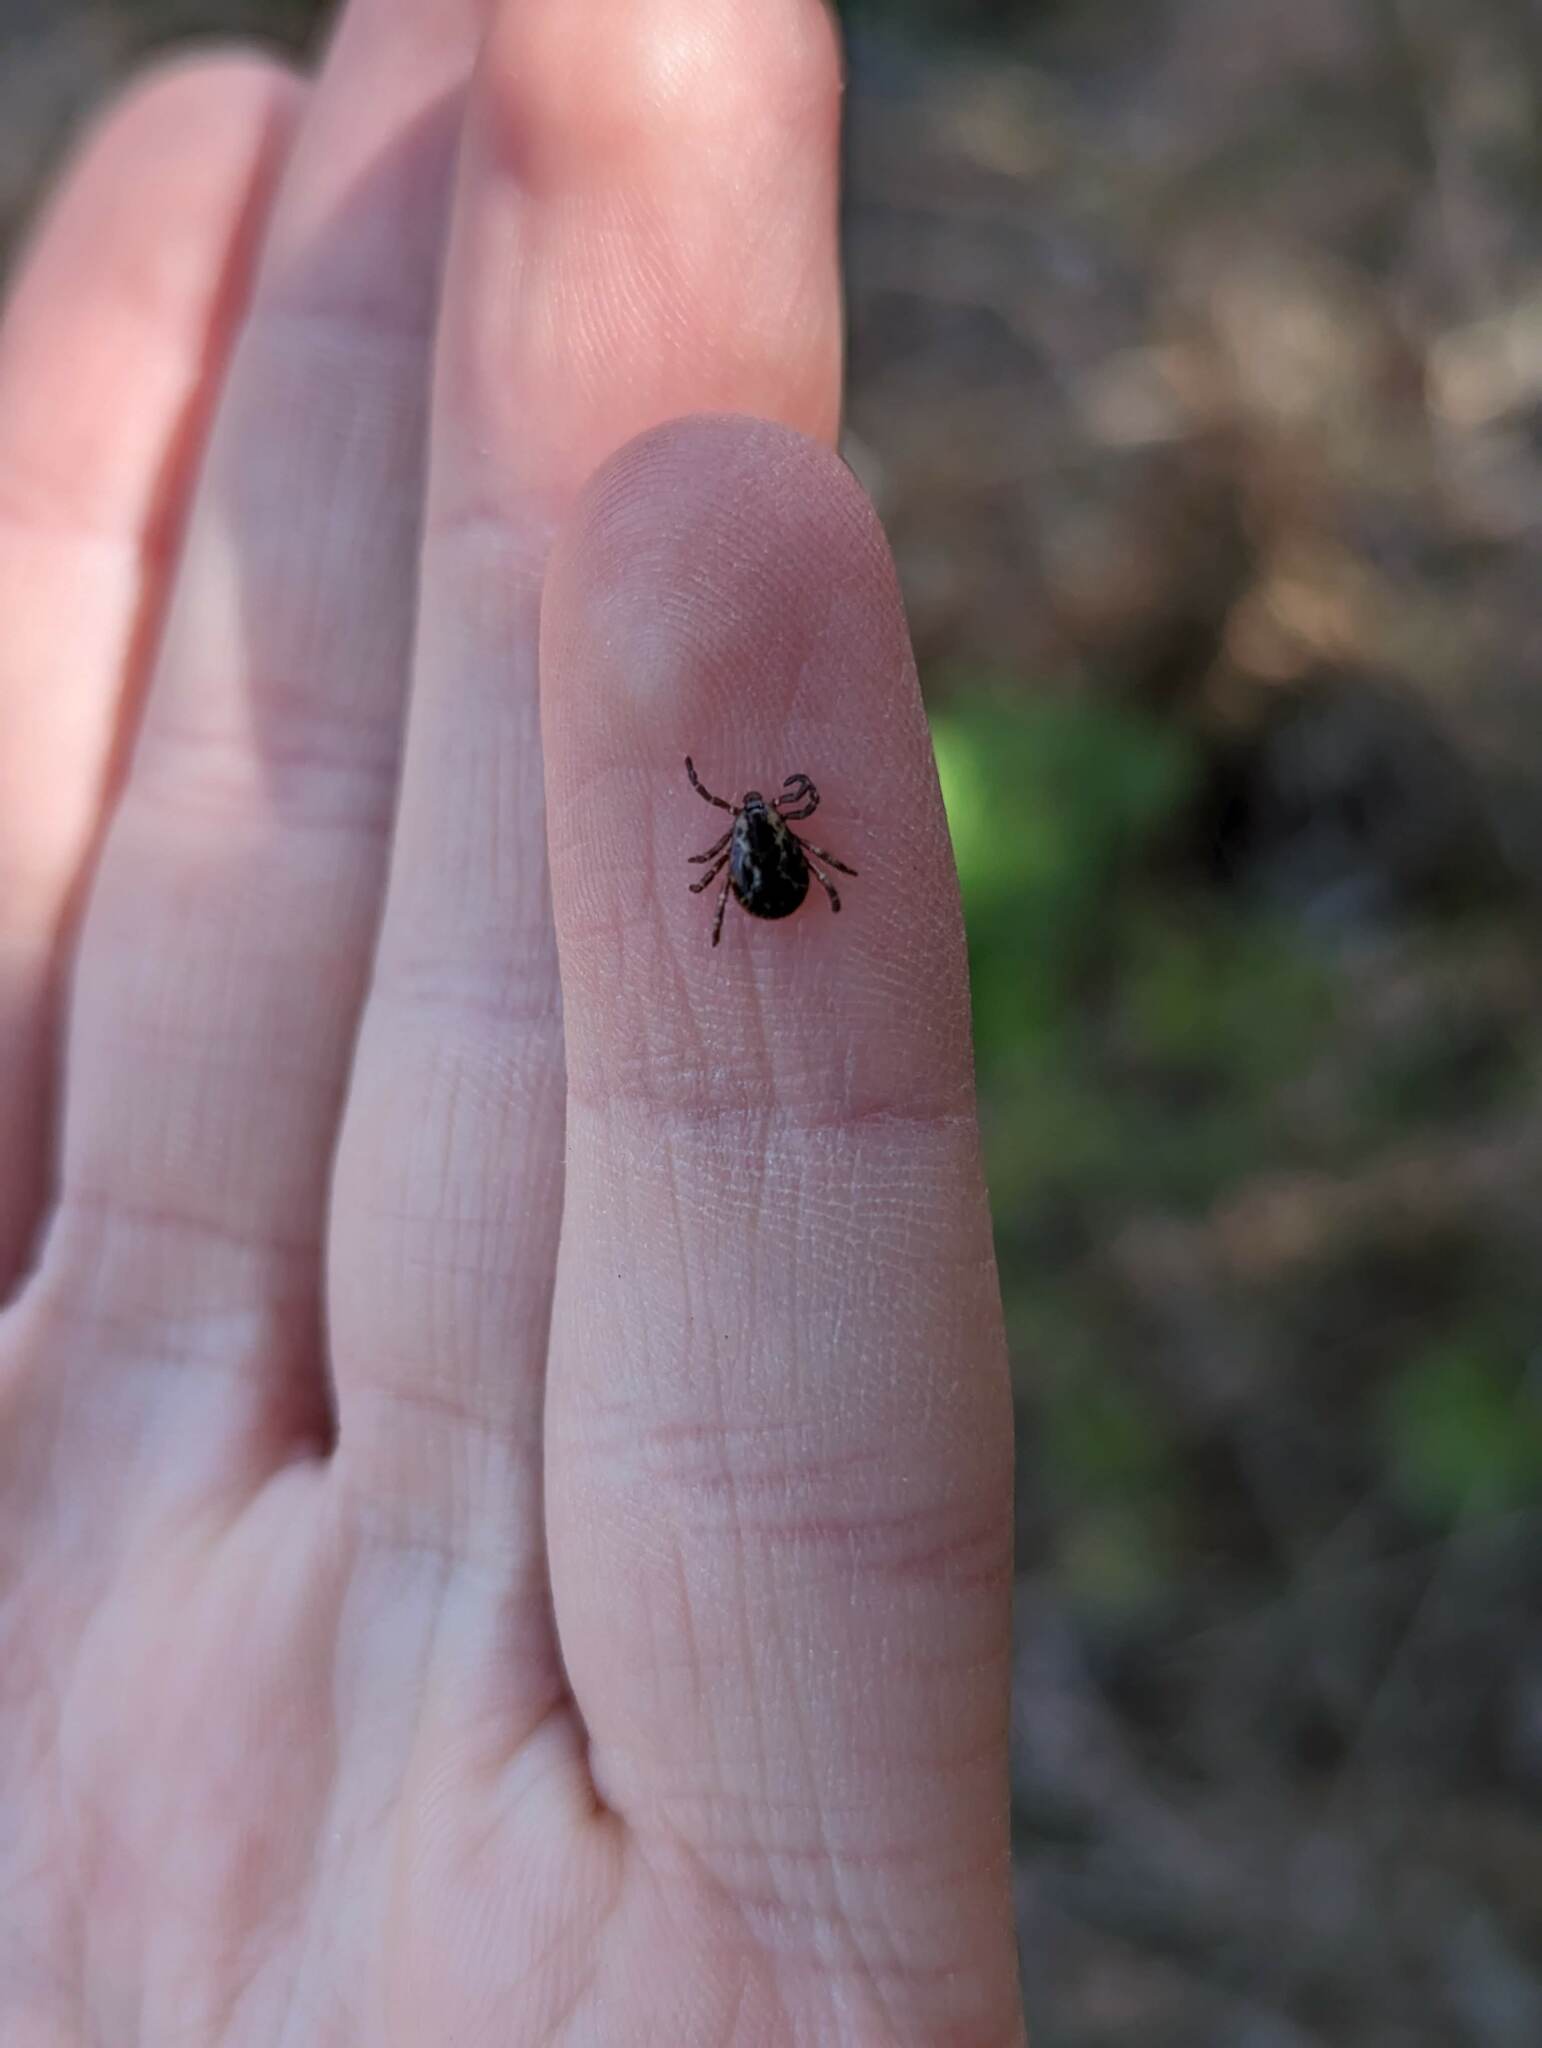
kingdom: Animalia
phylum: Arthropoda
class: Arachnida
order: Ixodida
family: Ixodidae
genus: Dermacentor
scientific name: Dermacentor variabilis
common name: American dog tick
